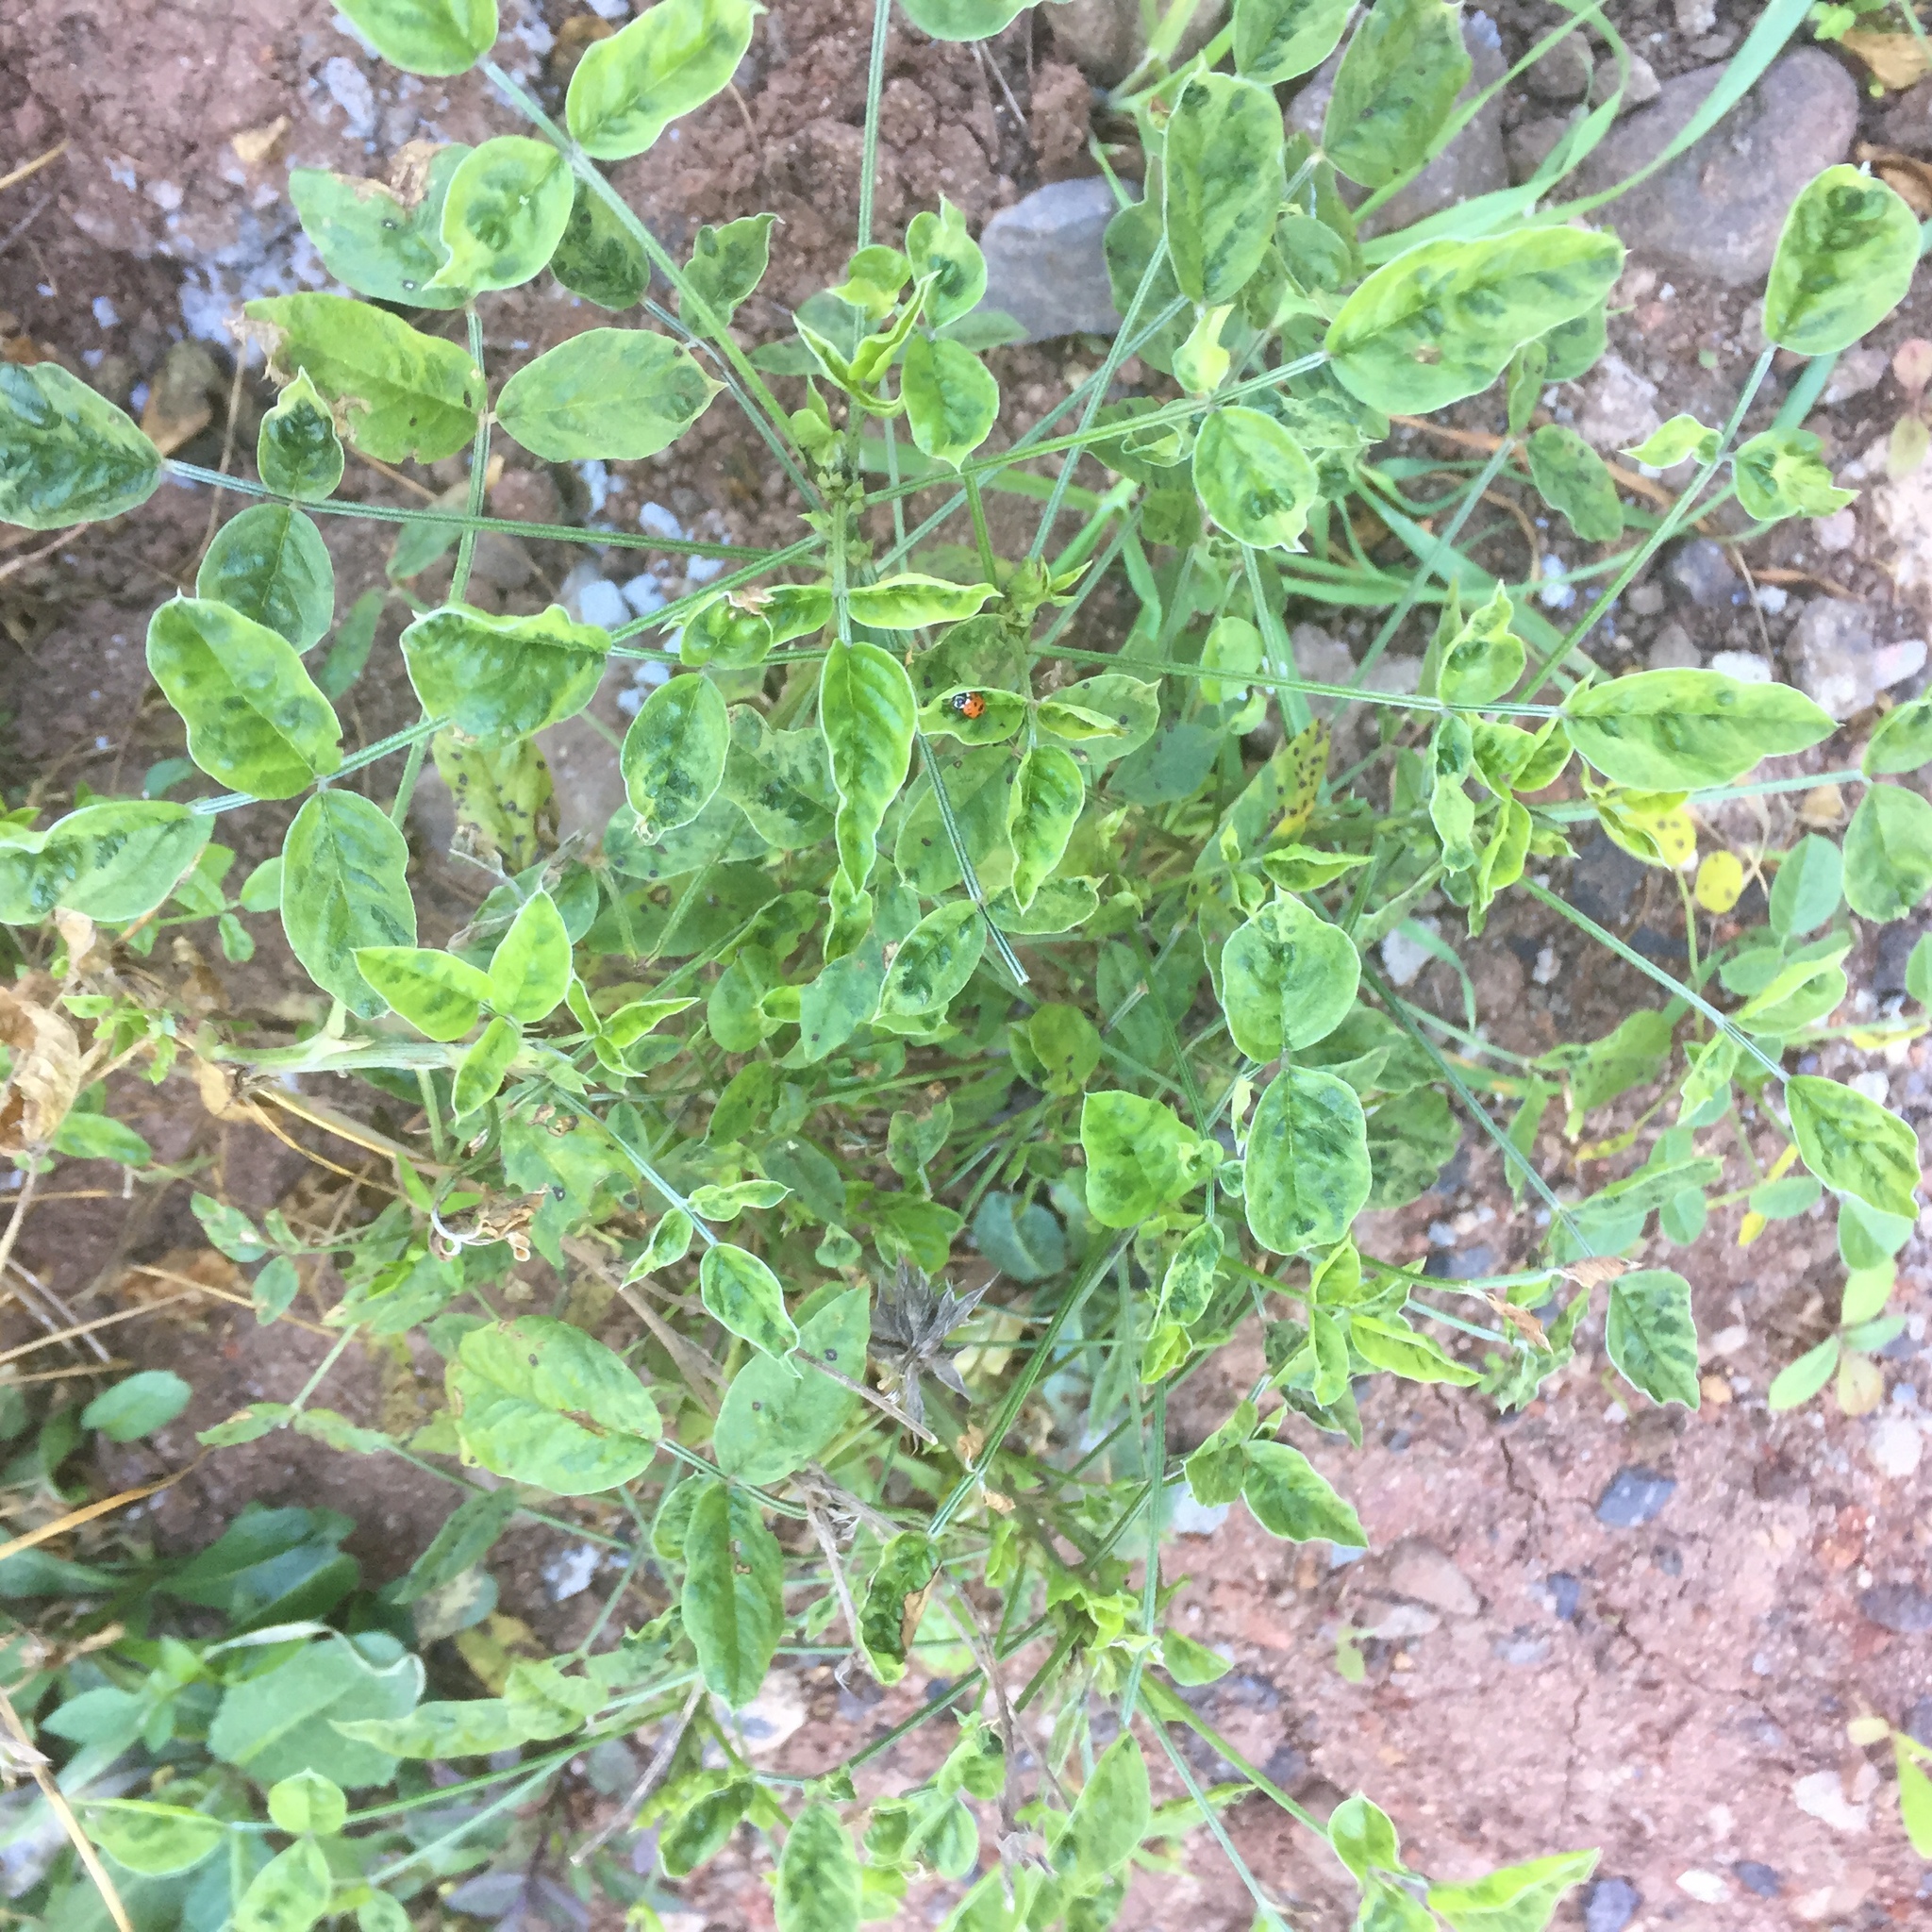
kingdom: Plantae
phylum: Tracheophyta
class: Magnoliopsida
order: Fabales
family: Fabaceae
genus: Bituminaria
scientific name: Bituminaria bituminosa
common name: Arabian pea
